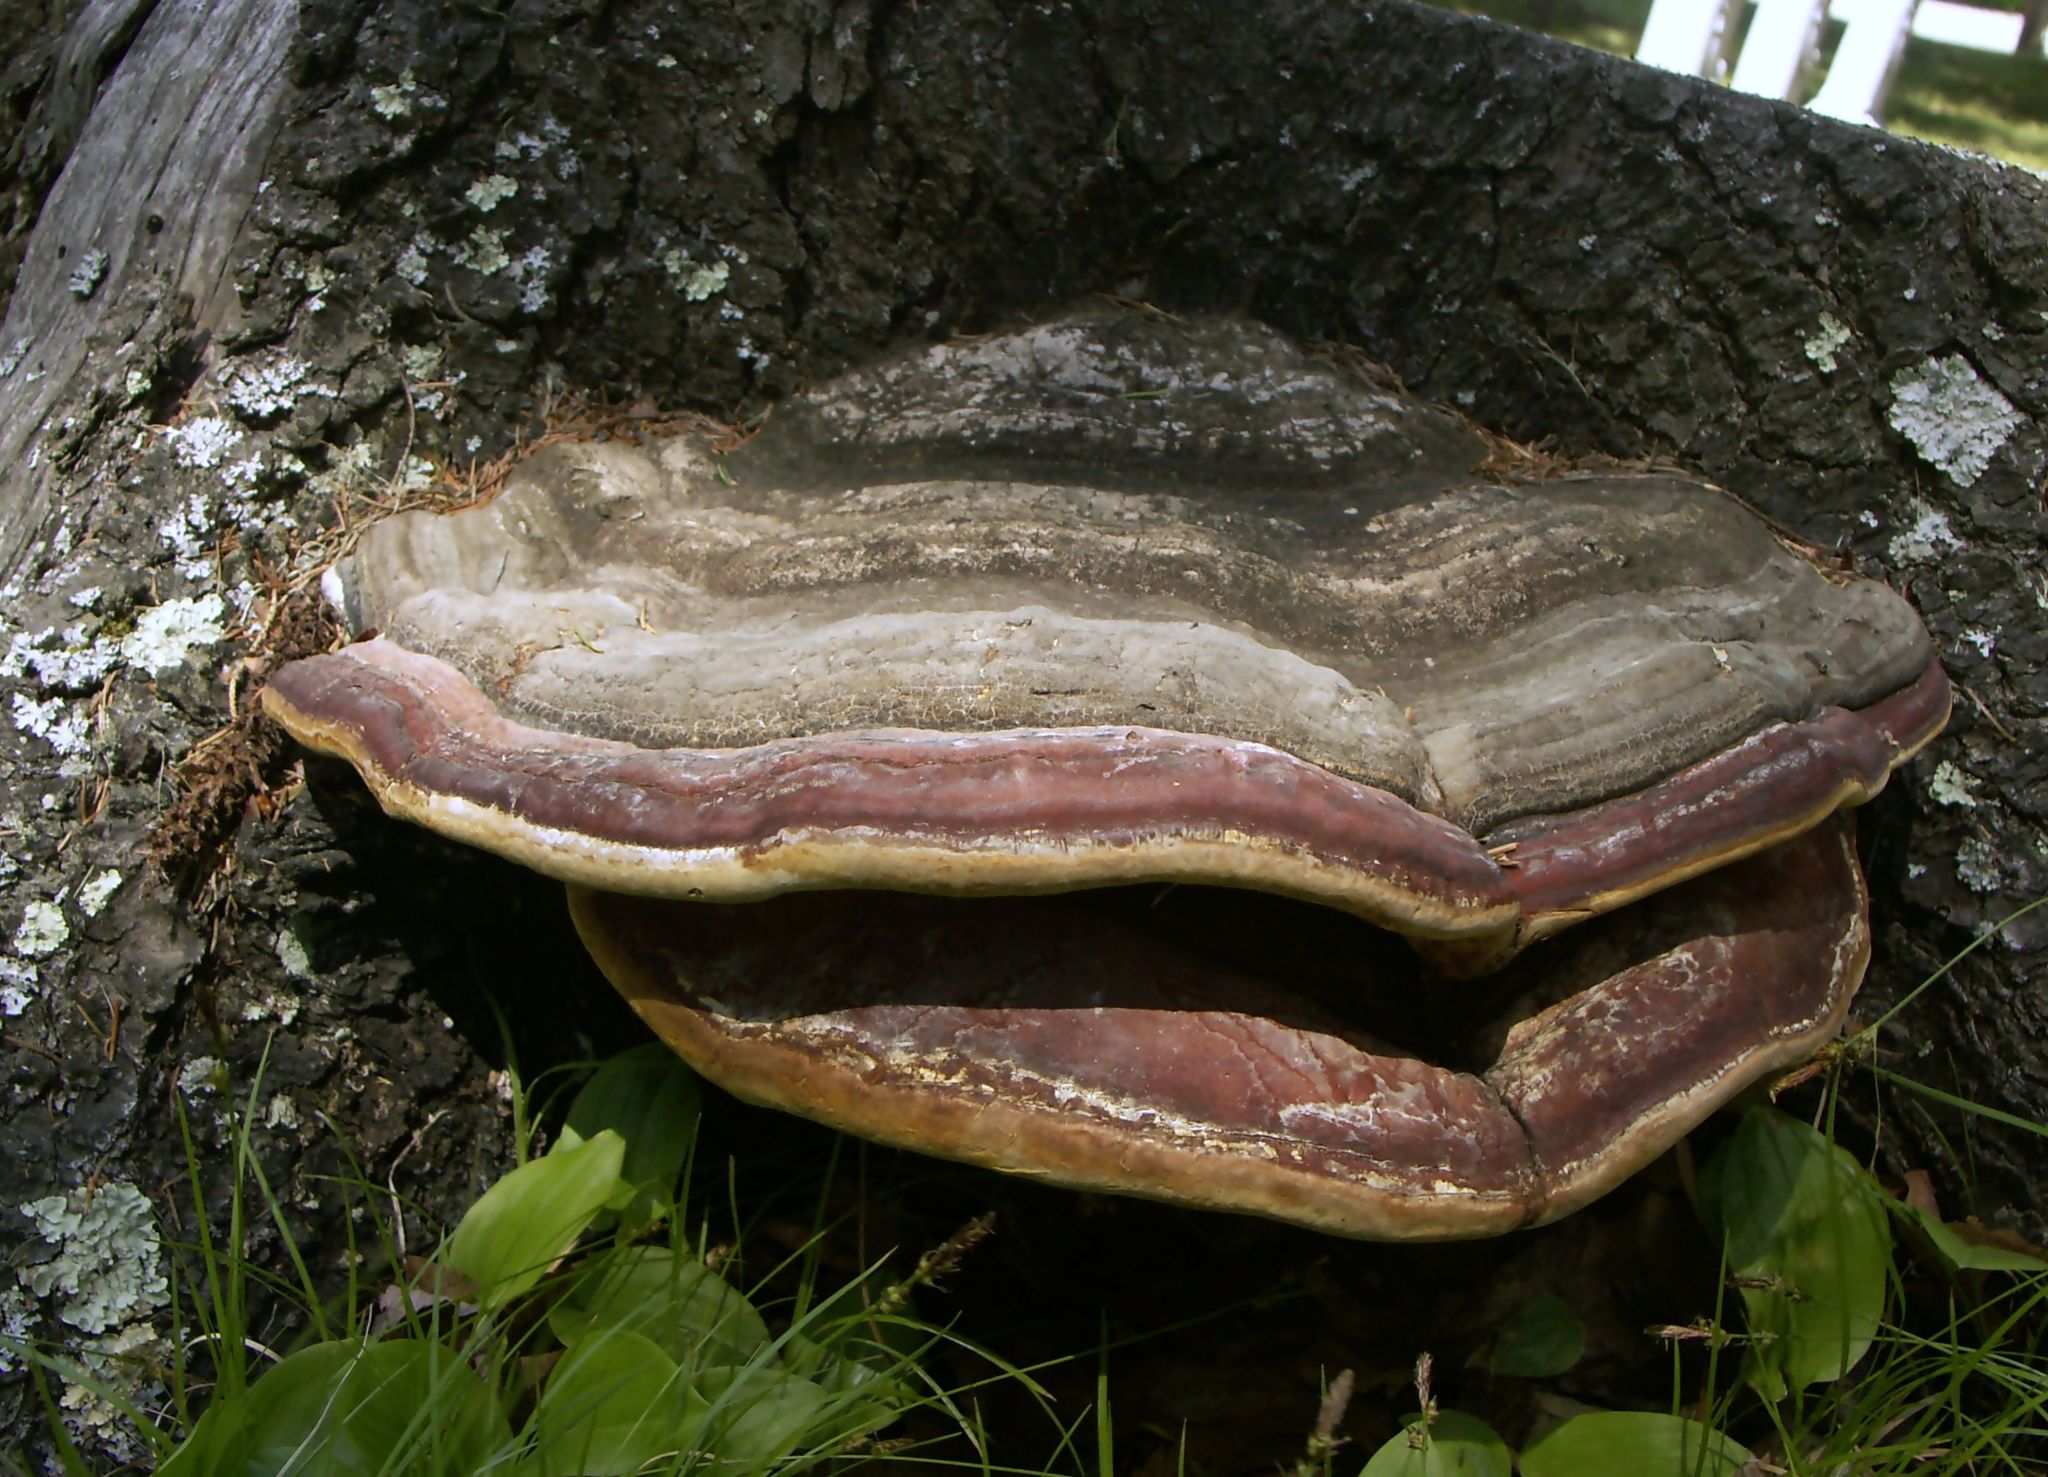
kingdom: Fungi
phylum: Basidiomycota
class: Agaricomycetes
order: Polyporales
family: Fomitopsidaceae
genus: Fomitopsis
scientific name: Fomitopsis mounceae
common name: Northern red belt
